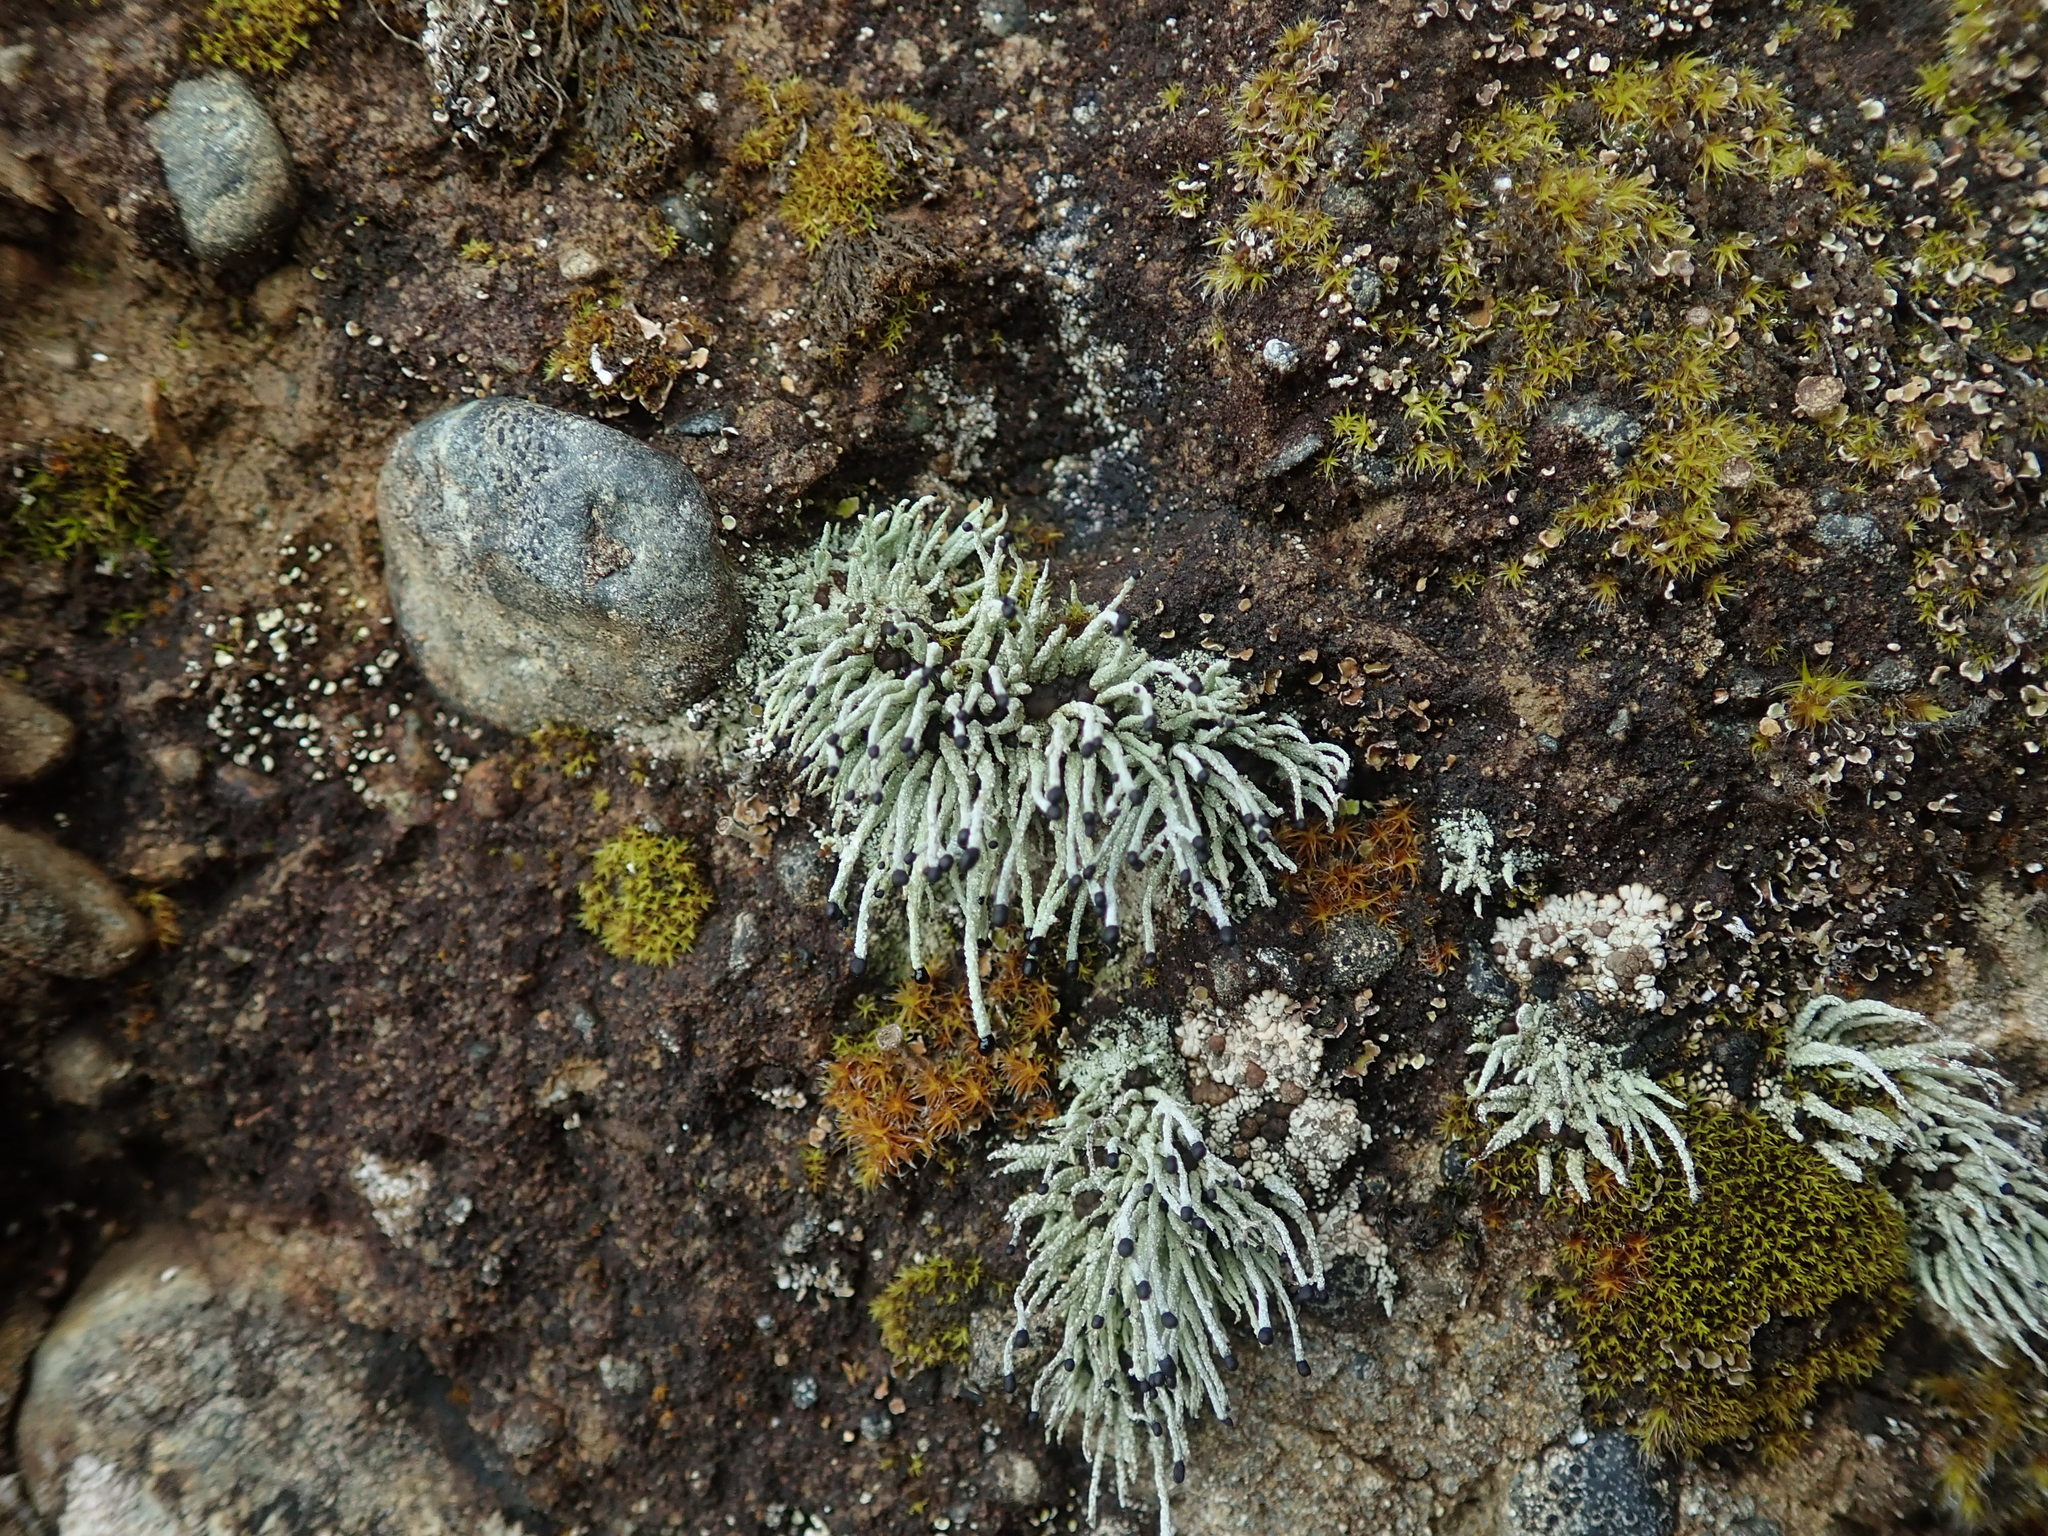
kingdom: Fungi
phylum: Ascomycota
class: Lecanoromycetes
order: Lecanorales
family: Cladoniaceae
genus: Pilophorus
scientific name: Pilophorus acicularis
